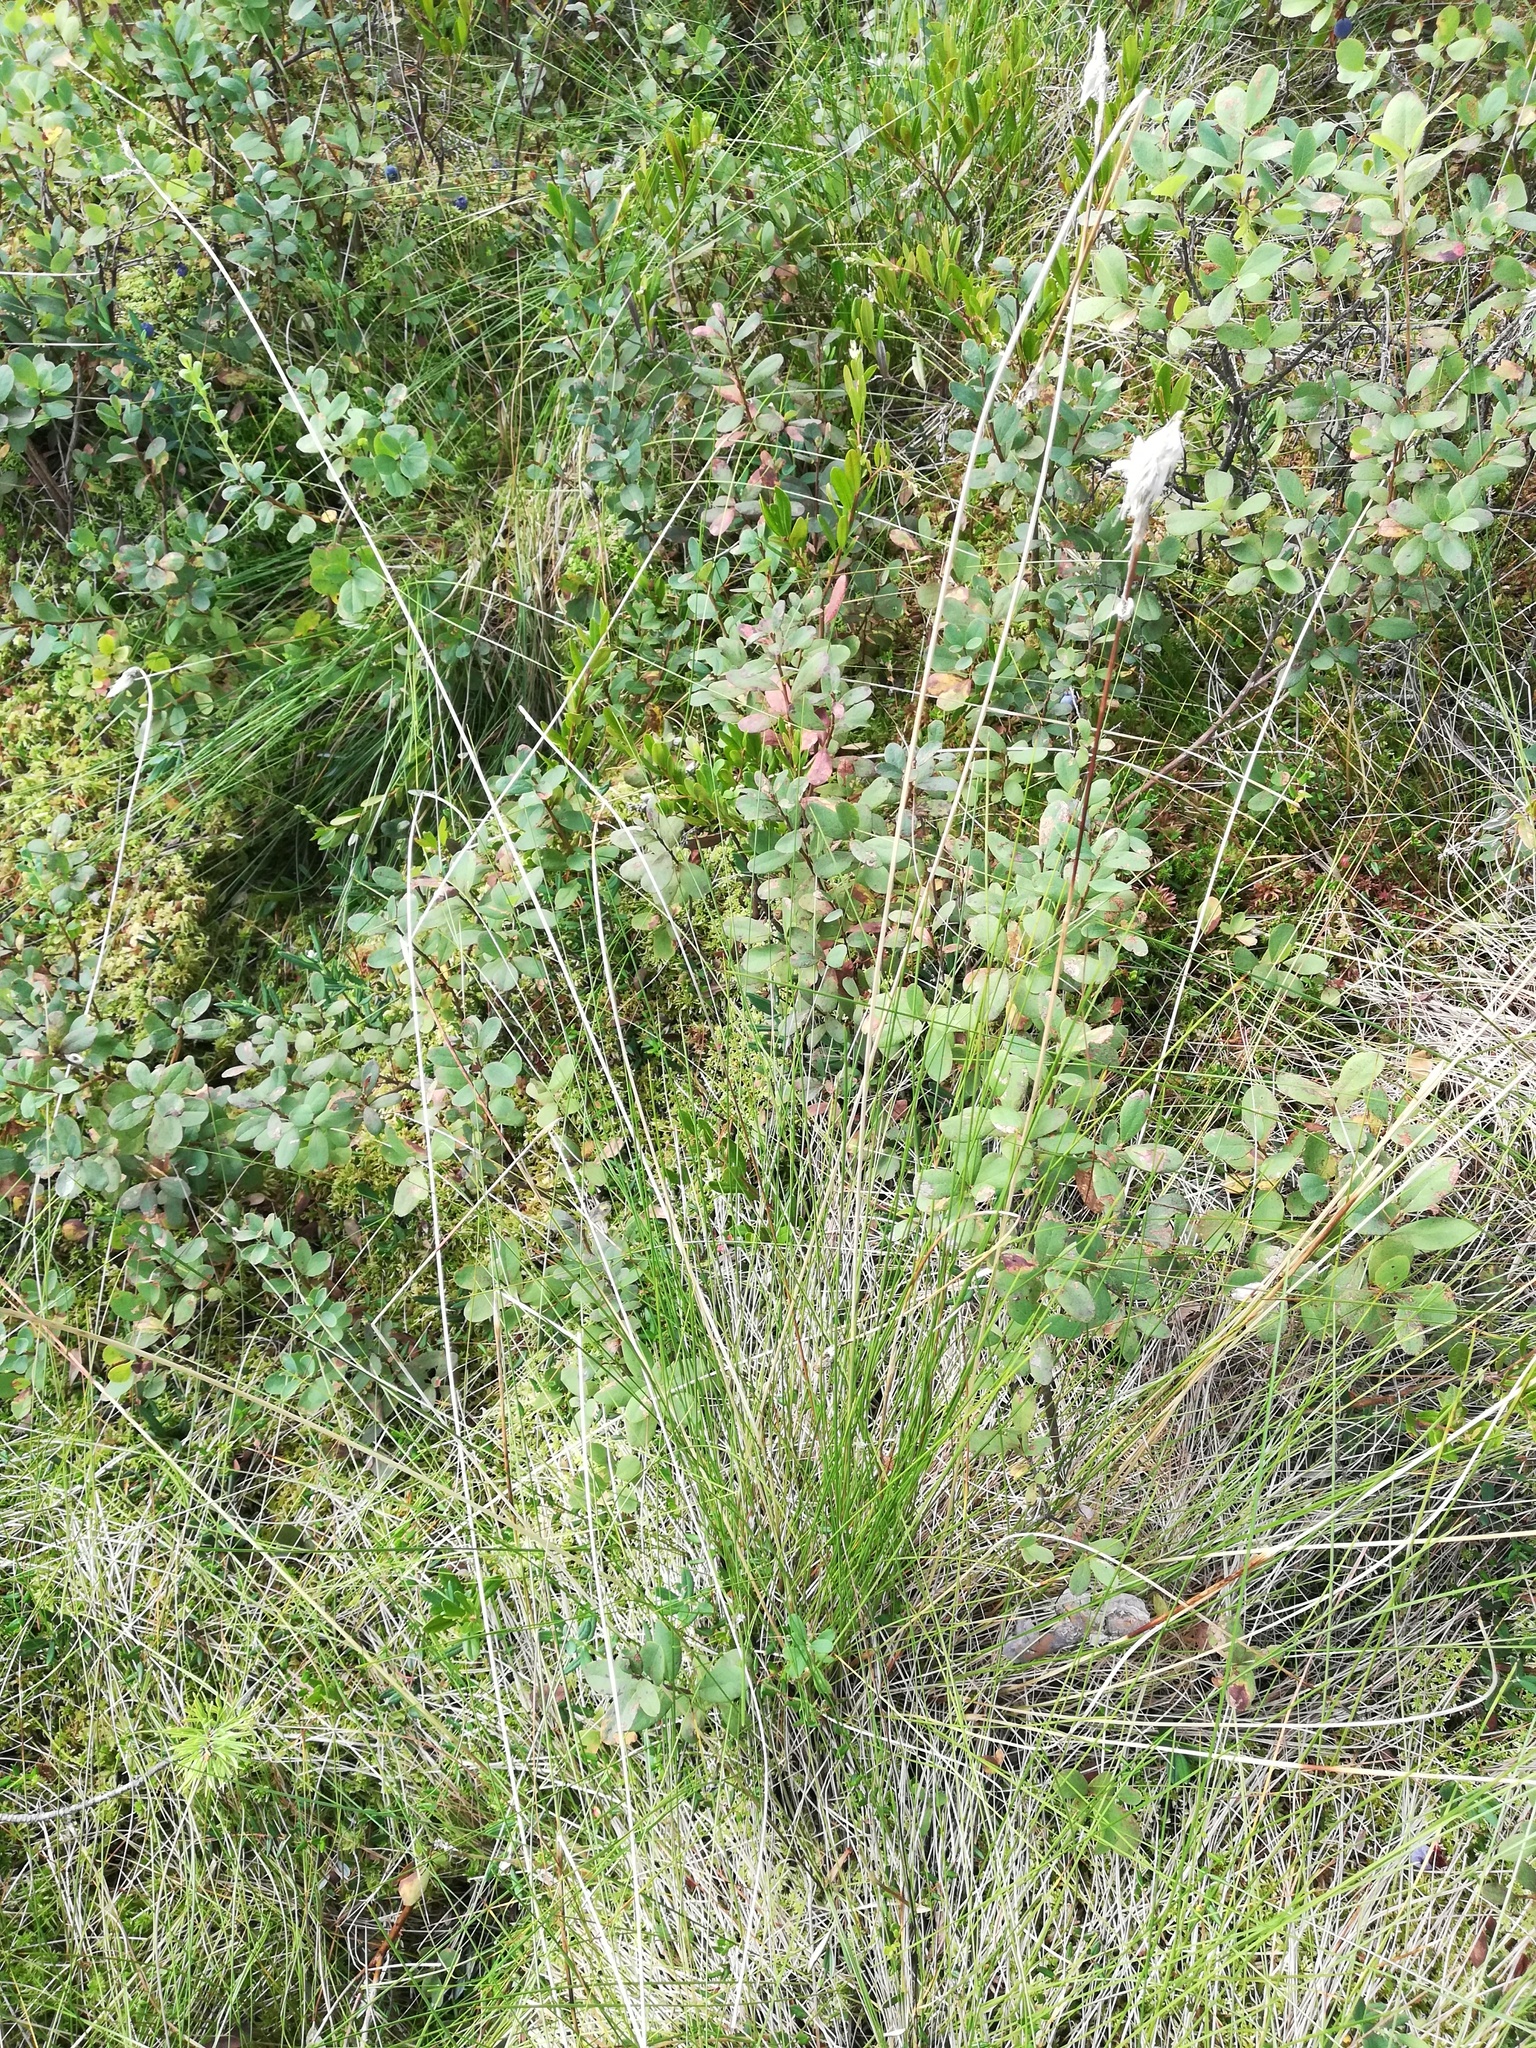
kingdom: Plantae
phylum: Tracheophyta
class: Liliopsida
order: Poales
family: Cyperaceae
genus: Eriophorum
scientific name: Eriophorum vaginatum
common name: Hare's-tail cottongrass
